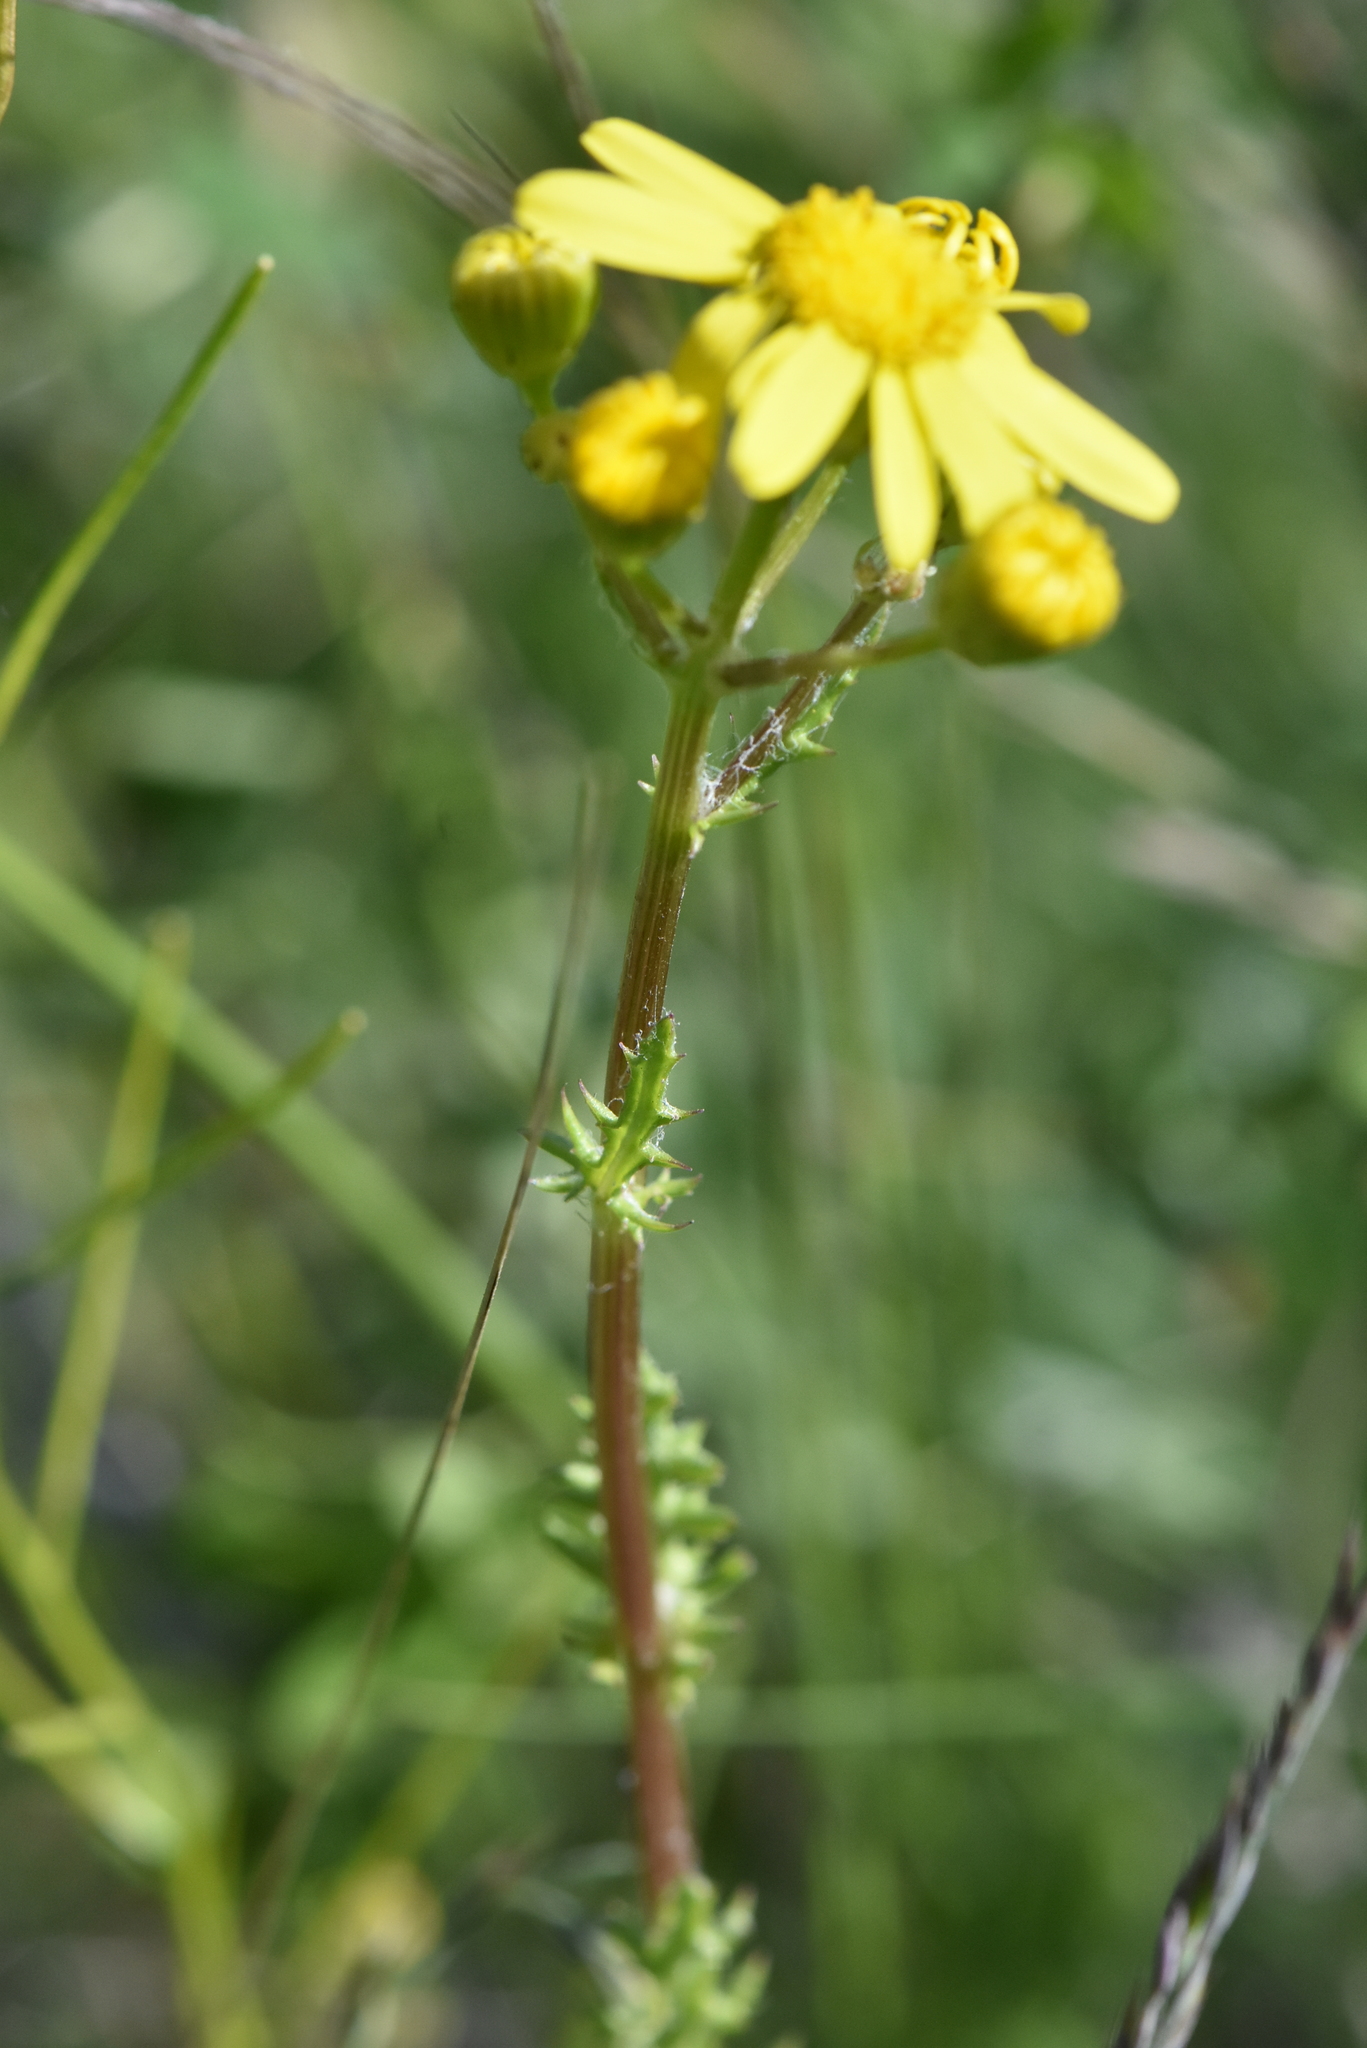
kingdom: Plantae
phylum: Tracheophyta
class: Magnoliopsida
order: Asterales
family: Asteraceae
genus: Senecio
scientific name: Senecio vernalis
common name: Eastern groundsel
